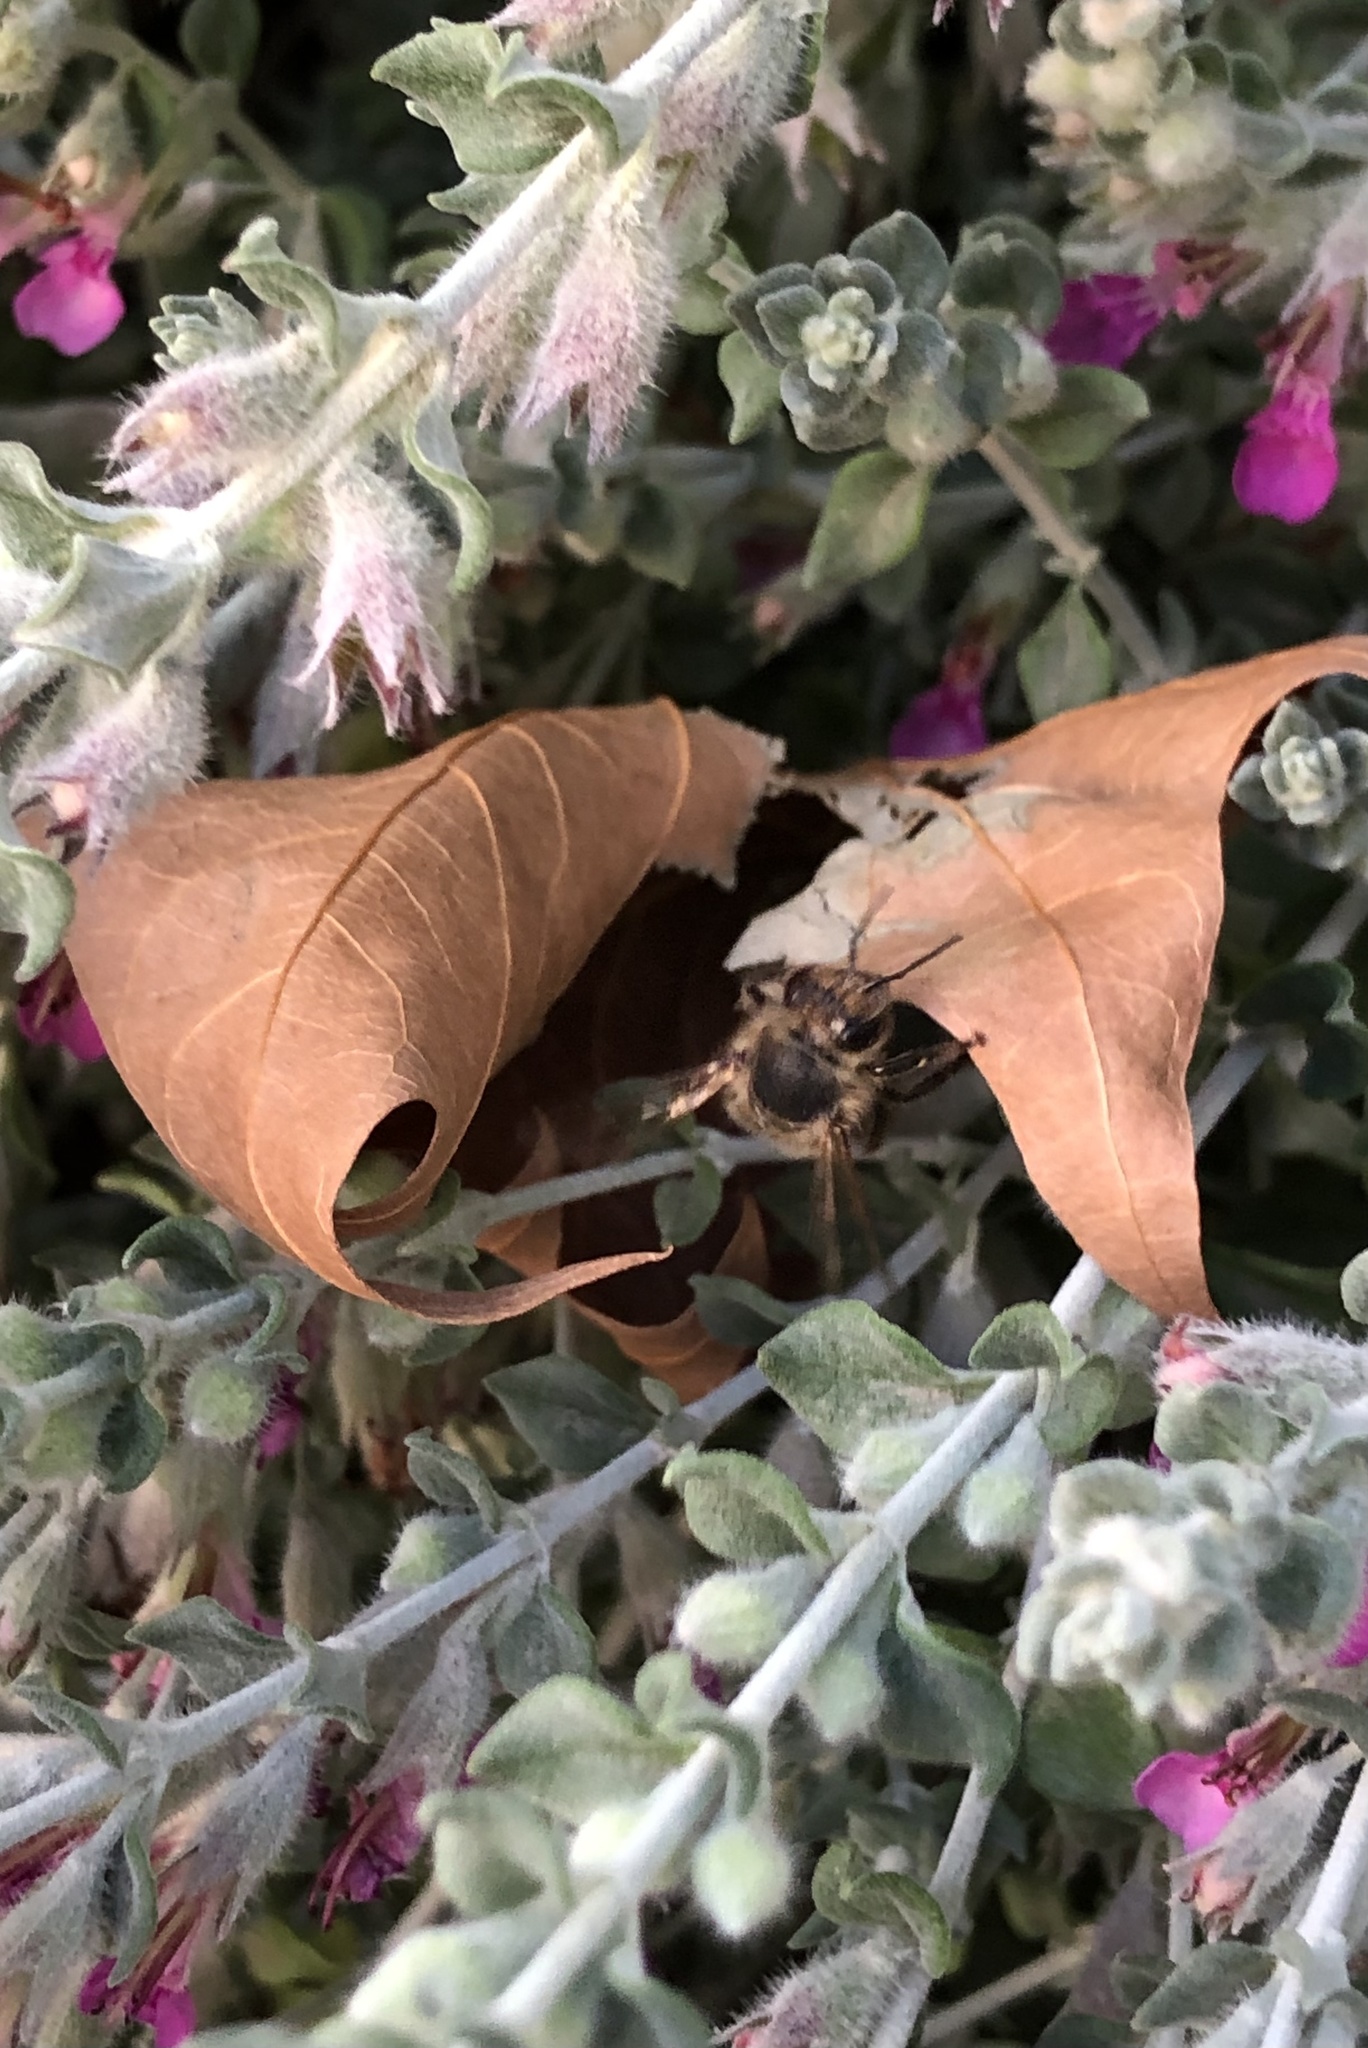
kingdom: Animalia
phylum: Arthropoda
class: Insecta
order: Hymenoptera
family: Apidae
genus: Apis
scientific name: Apis mellifera
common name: Honey bee
